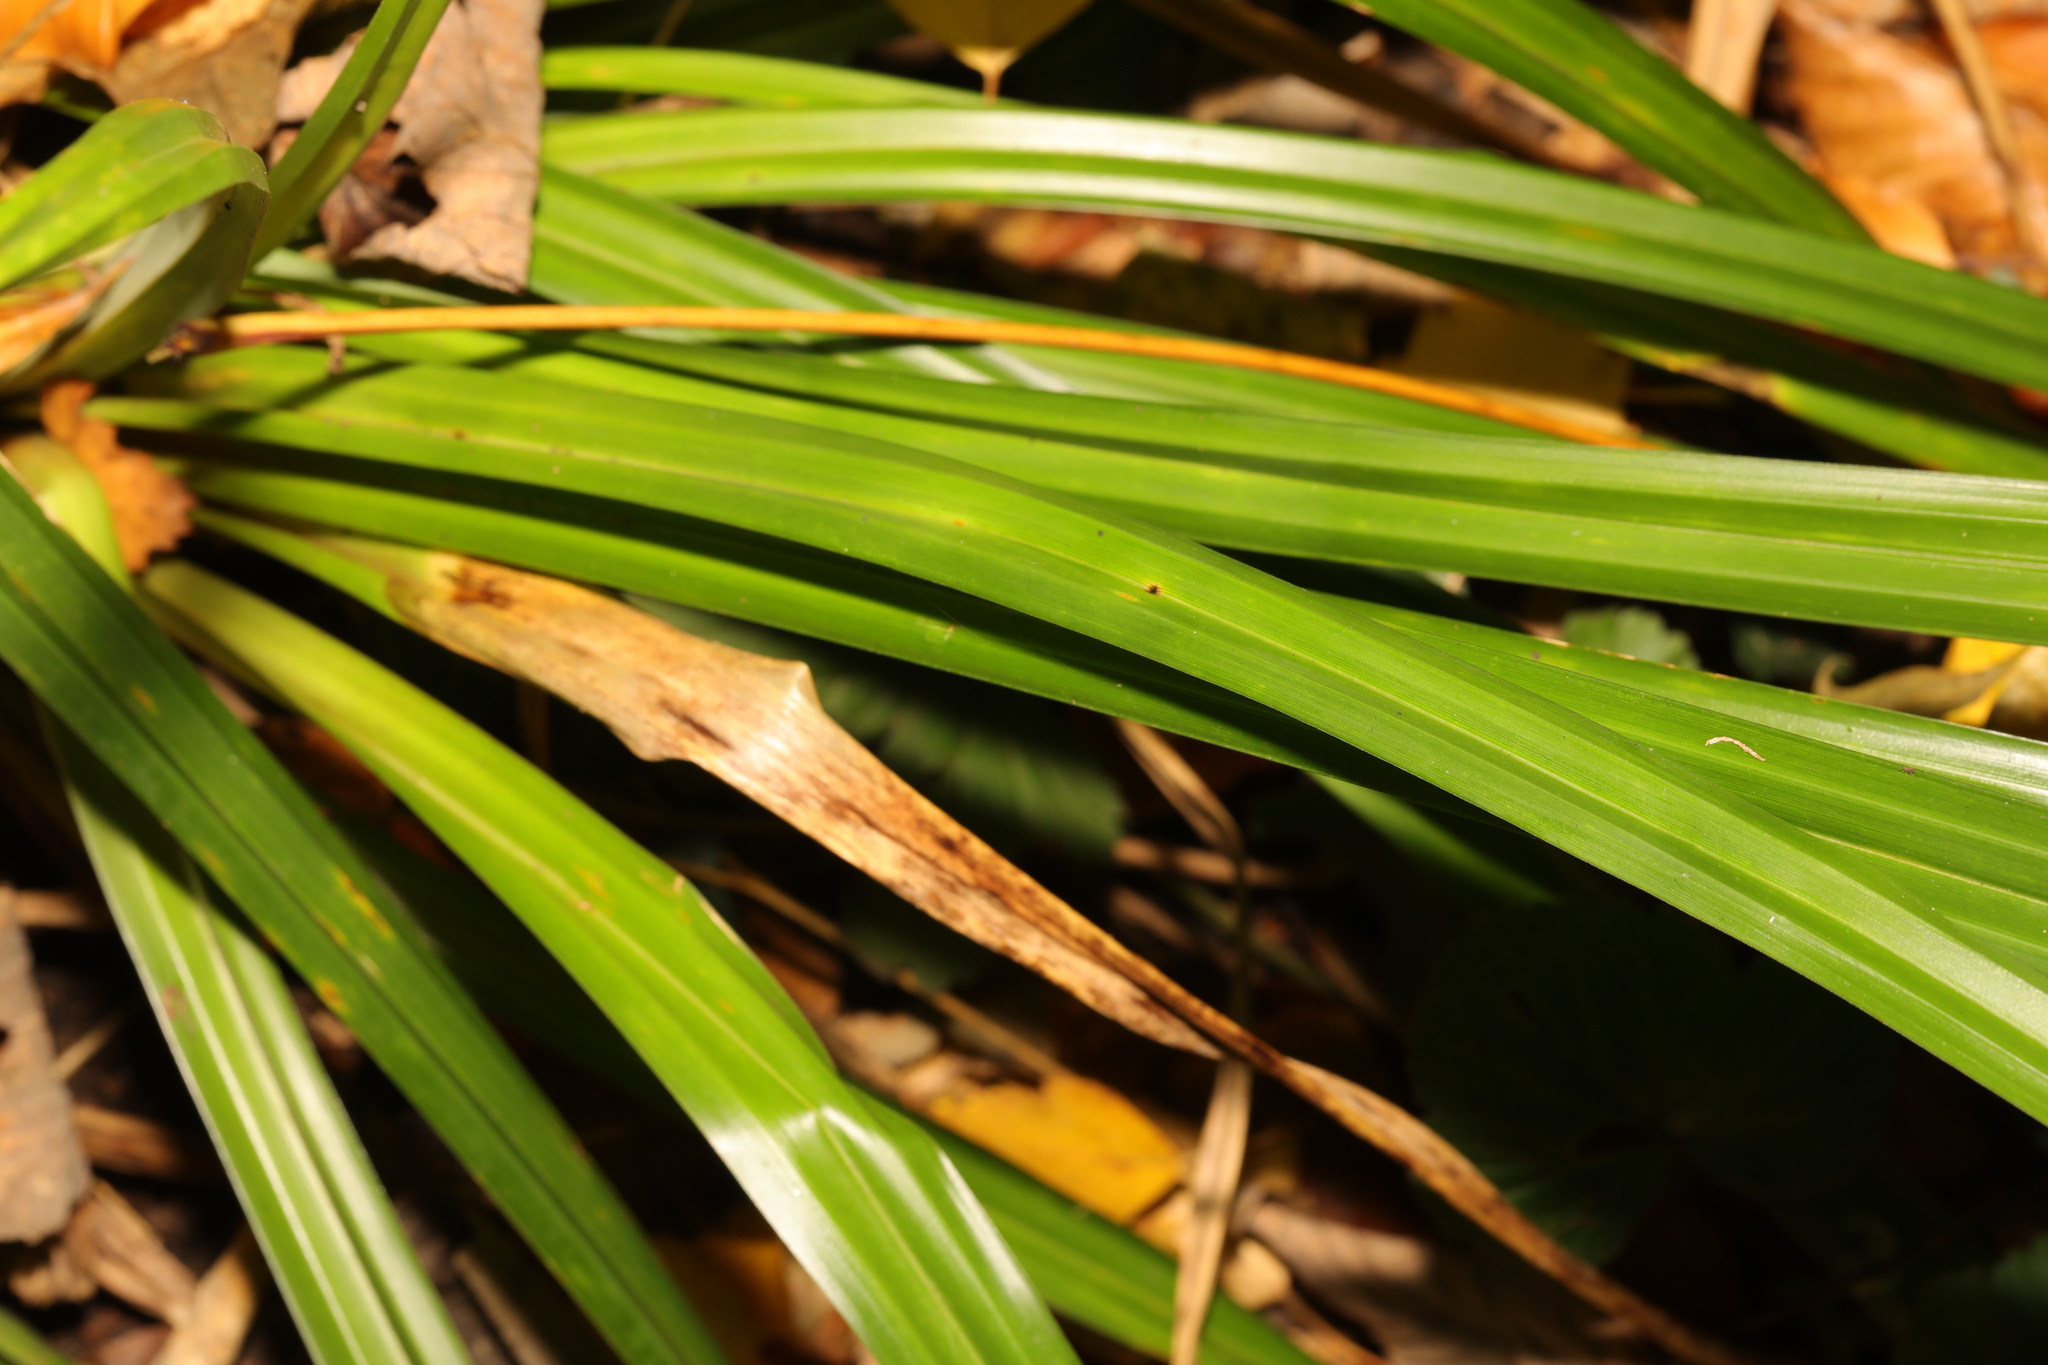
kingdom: Plantae
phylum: Tracheophyta
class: Liliopsida
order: Poales
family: Cyperaceae
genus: Carex
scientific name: Carex pendula
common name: Pendulous sedge
